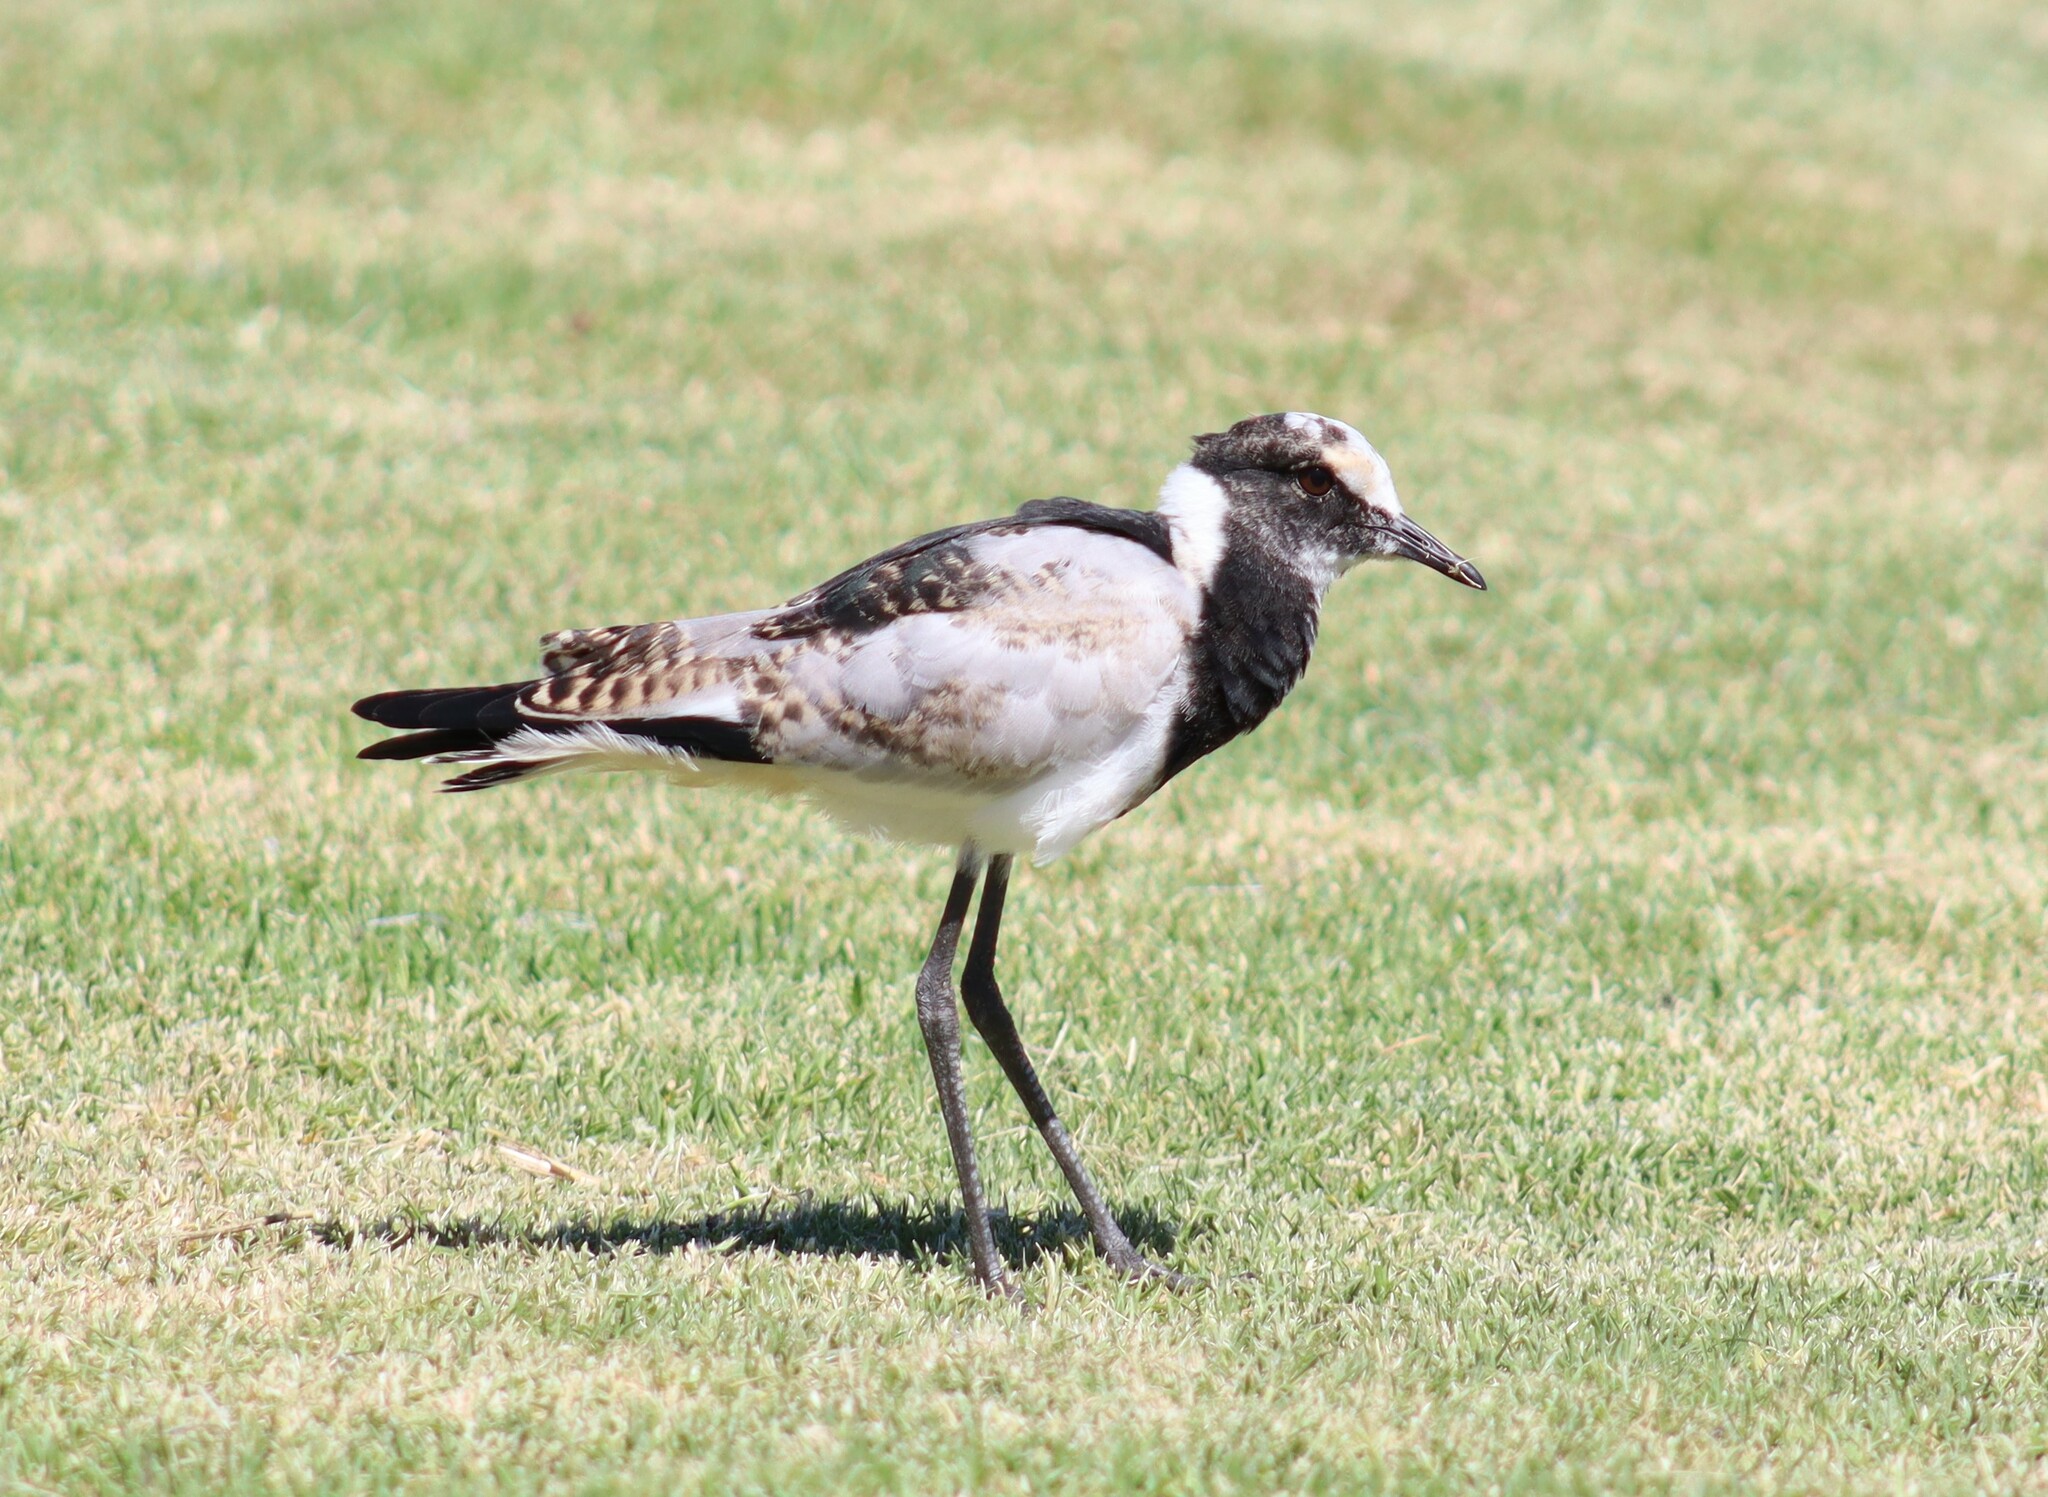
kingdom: Animalia
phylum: Chordata
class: Aves
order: Charadriiformes
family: Charadriidae
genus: Vanellus
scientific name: Vanellus armatus
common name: Blacksmith lapwing
